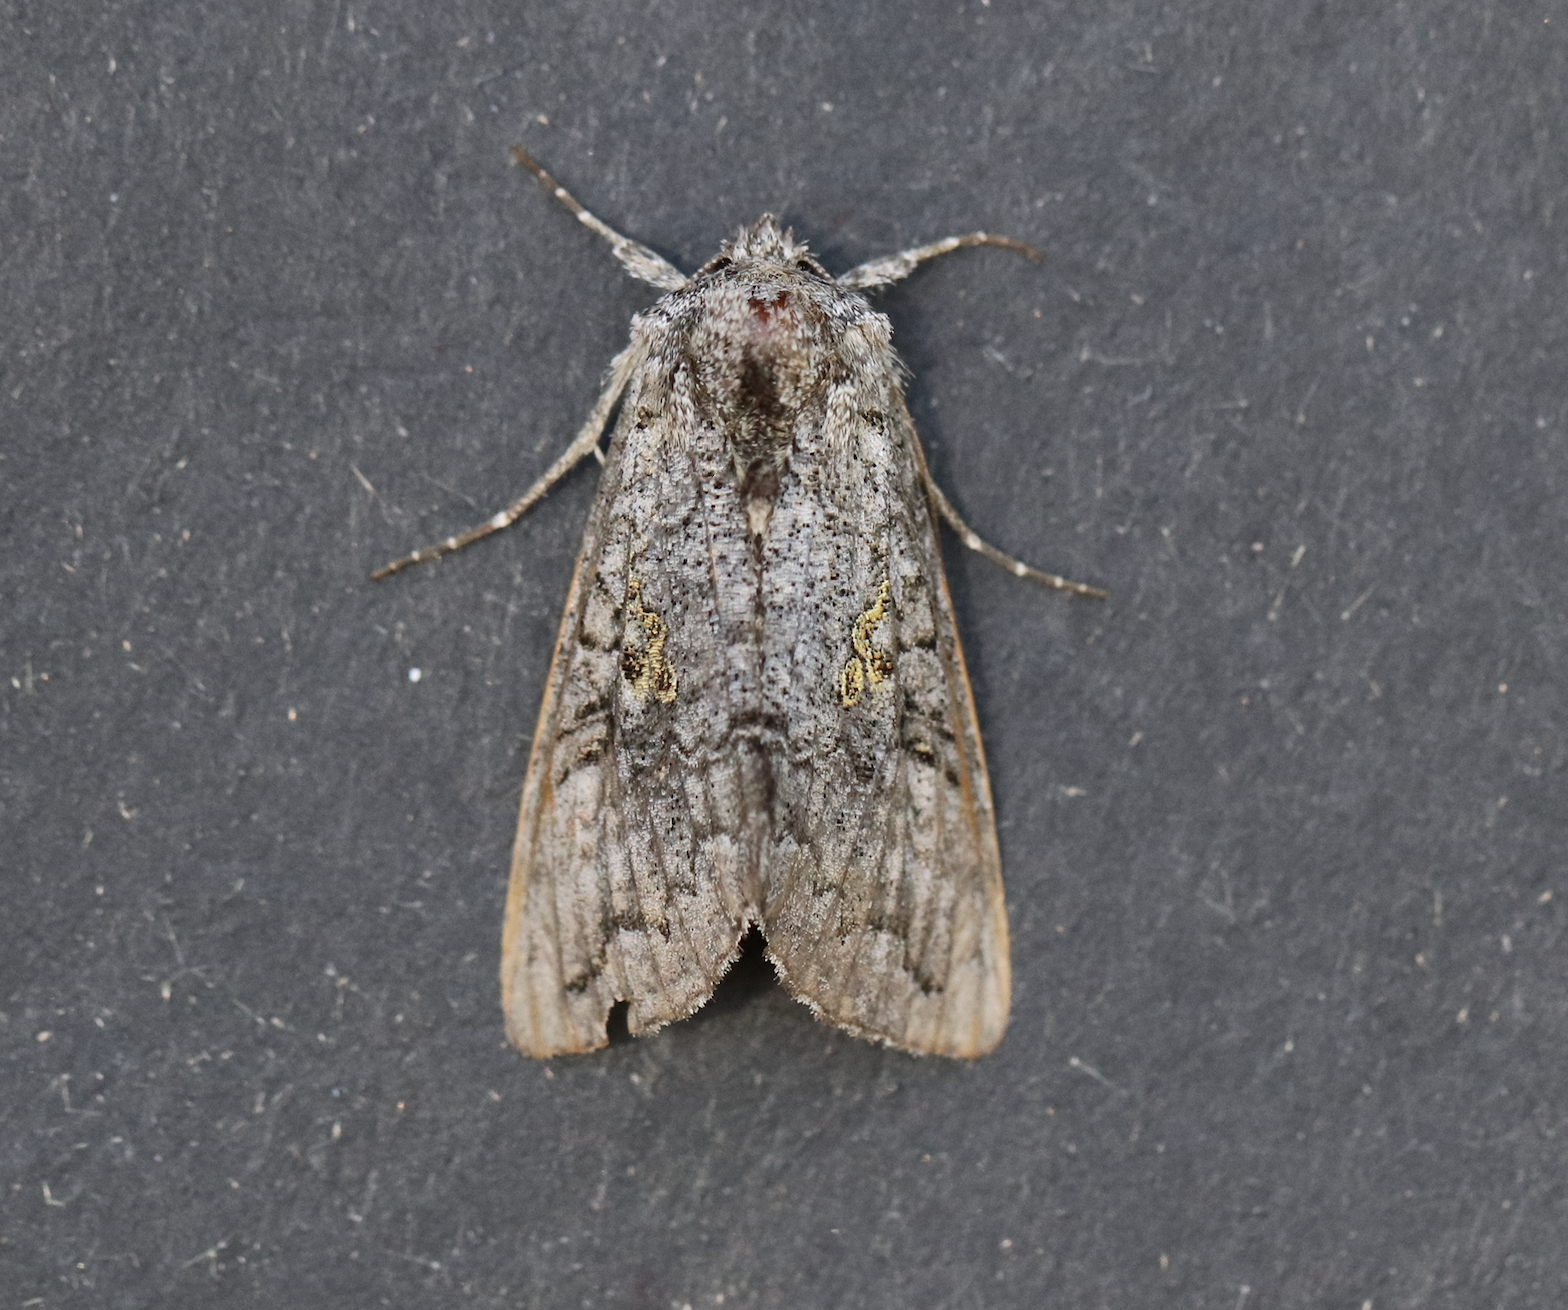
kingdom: Animalia
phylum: Arthropoda
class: Insecta
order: Lepidoptera
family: Noctuidae
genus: Syngrapha
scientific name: Syngrapha viridisigma
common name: Spruce false looper moth
